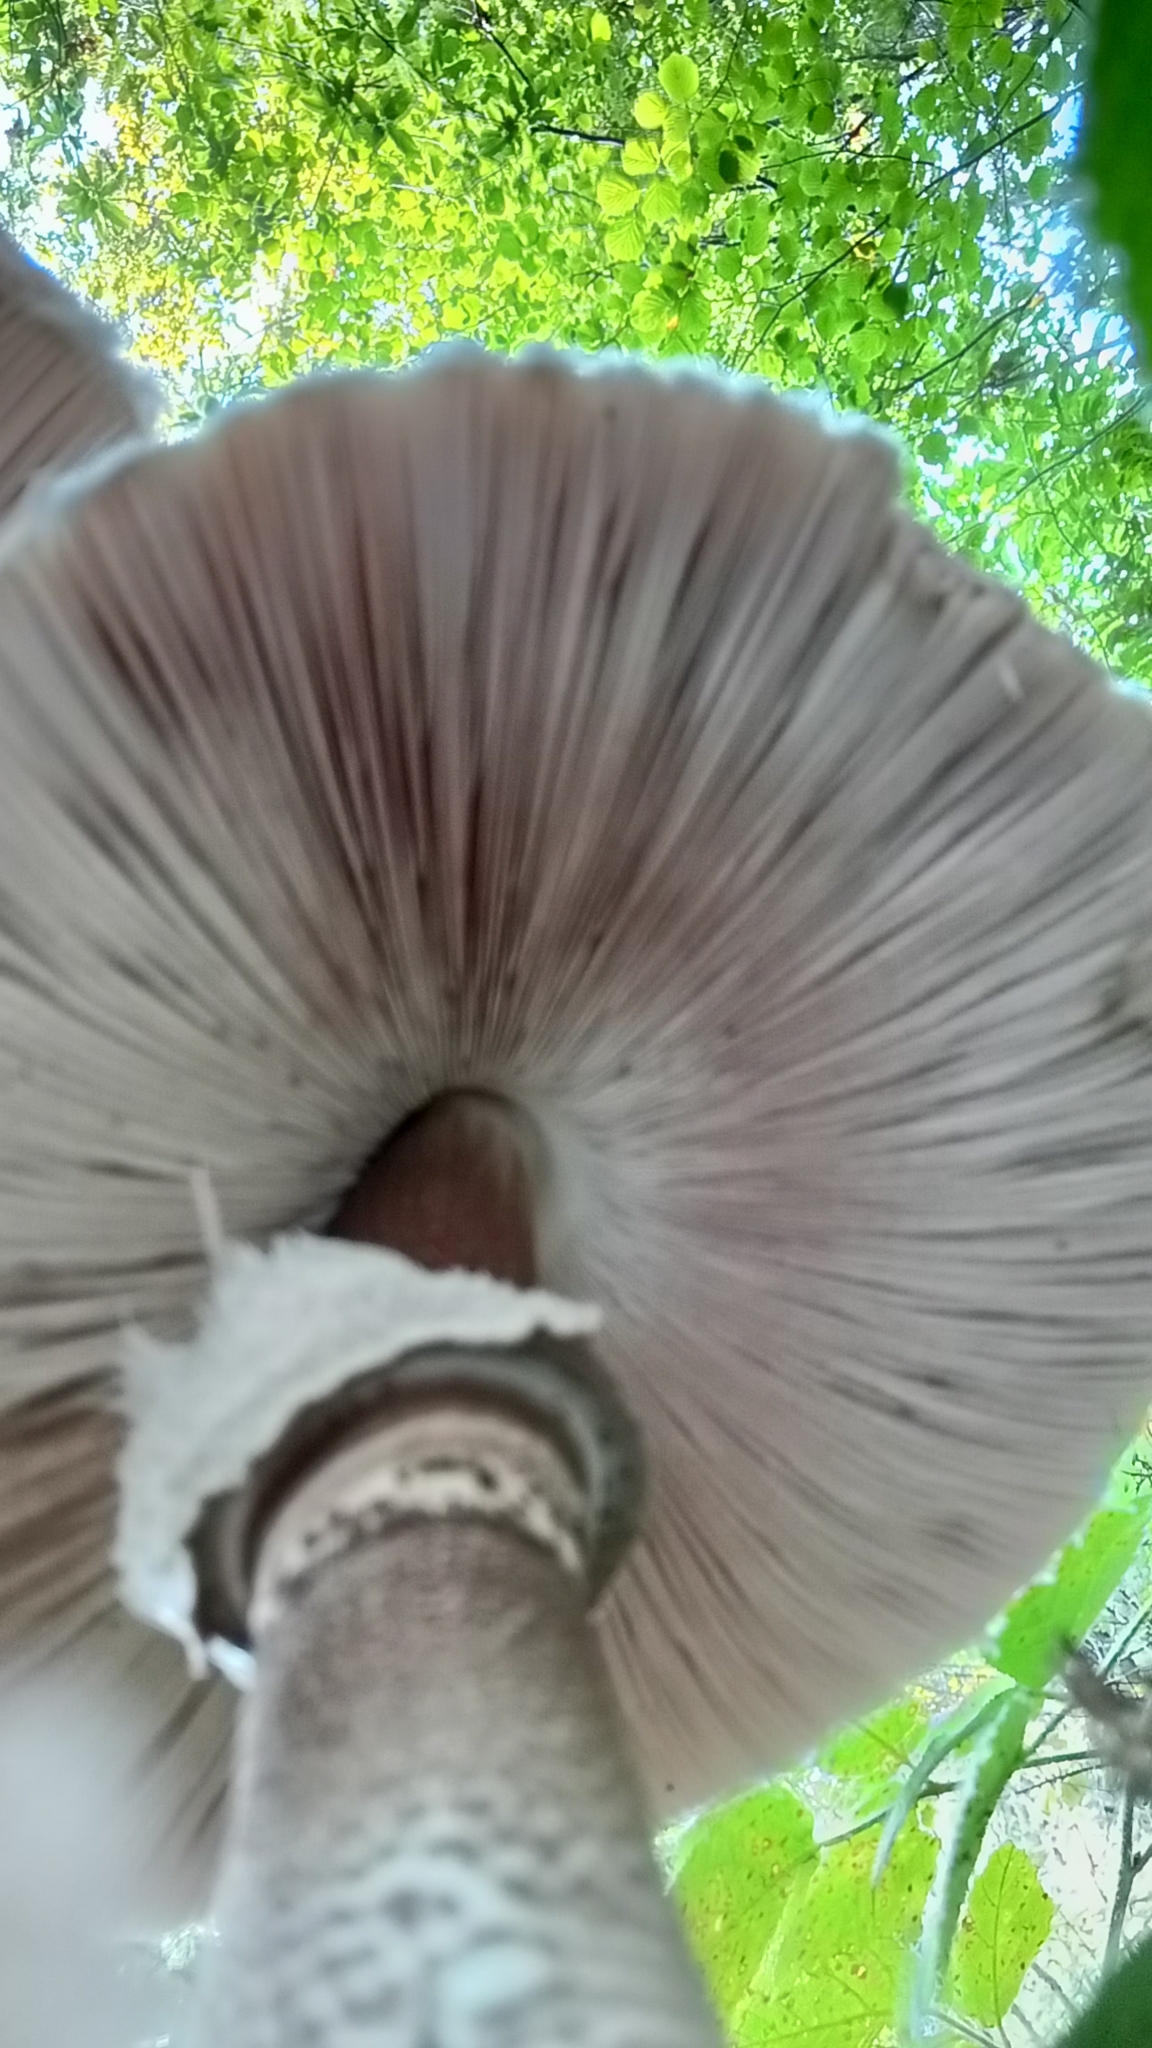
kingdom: Fungi
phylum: Basidiomycota
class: Agaricomycetes
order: Agaricales
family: Agaricaceae
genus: Macrolepiota
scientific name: Macrolepiota procera
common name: Parasol
